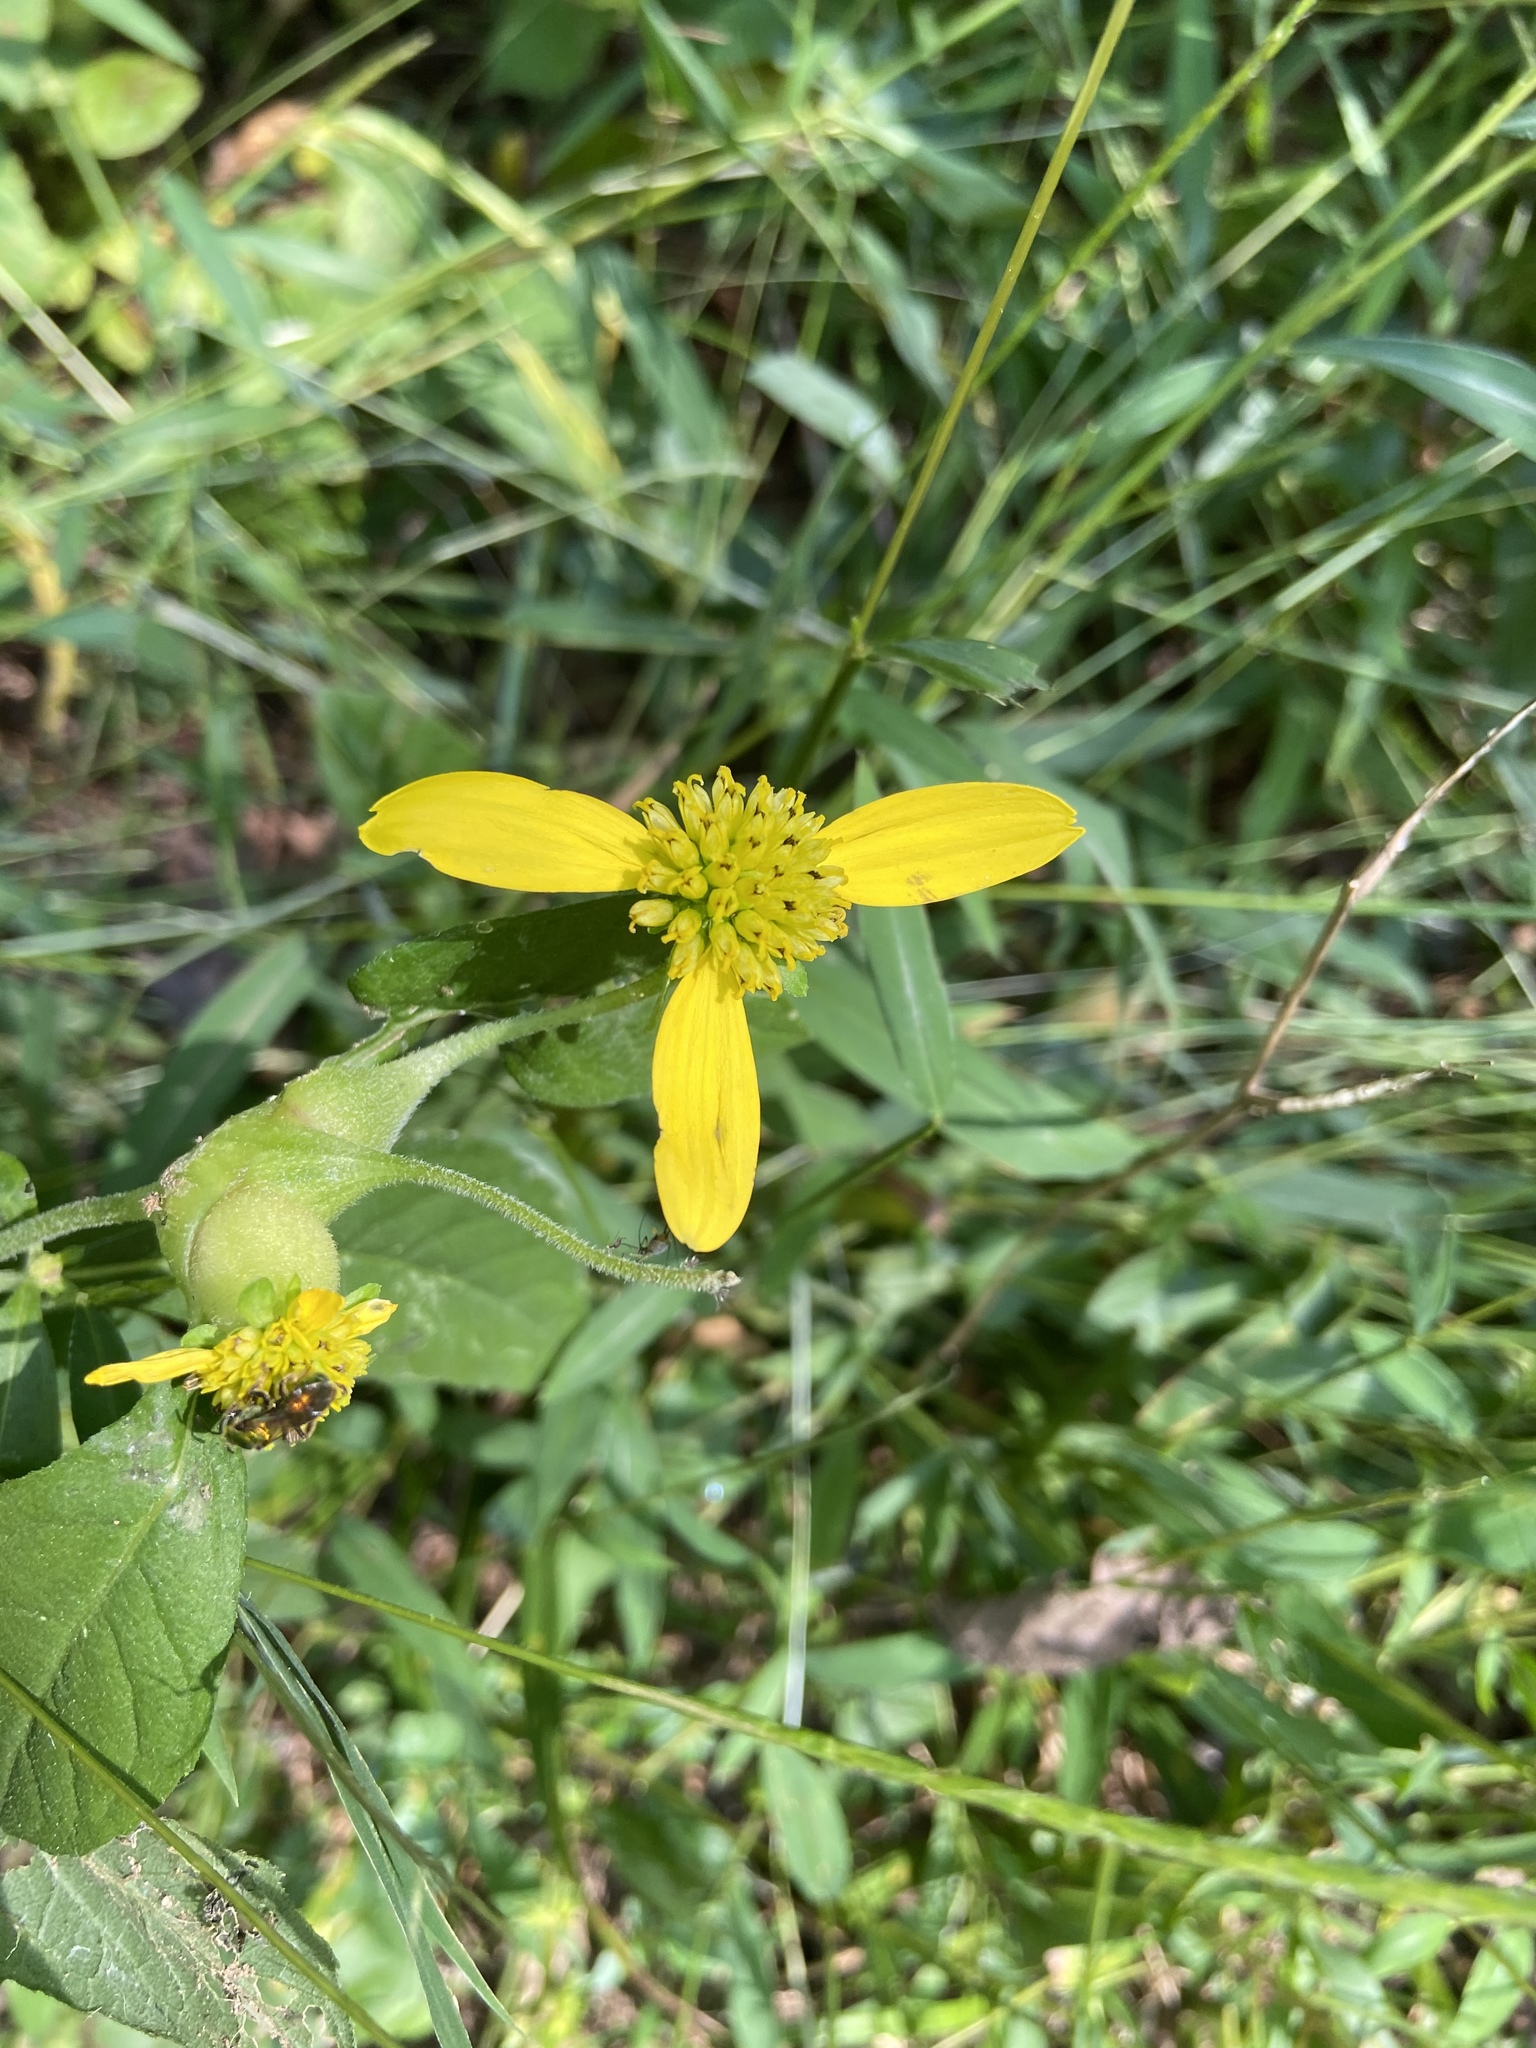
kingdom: Plantae
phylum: Tracheophyta
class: Magnoliopsida
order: Asterales
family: Asteraceae
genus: Verbesina
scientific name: Verbesina alternifolia
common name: Wingstem
